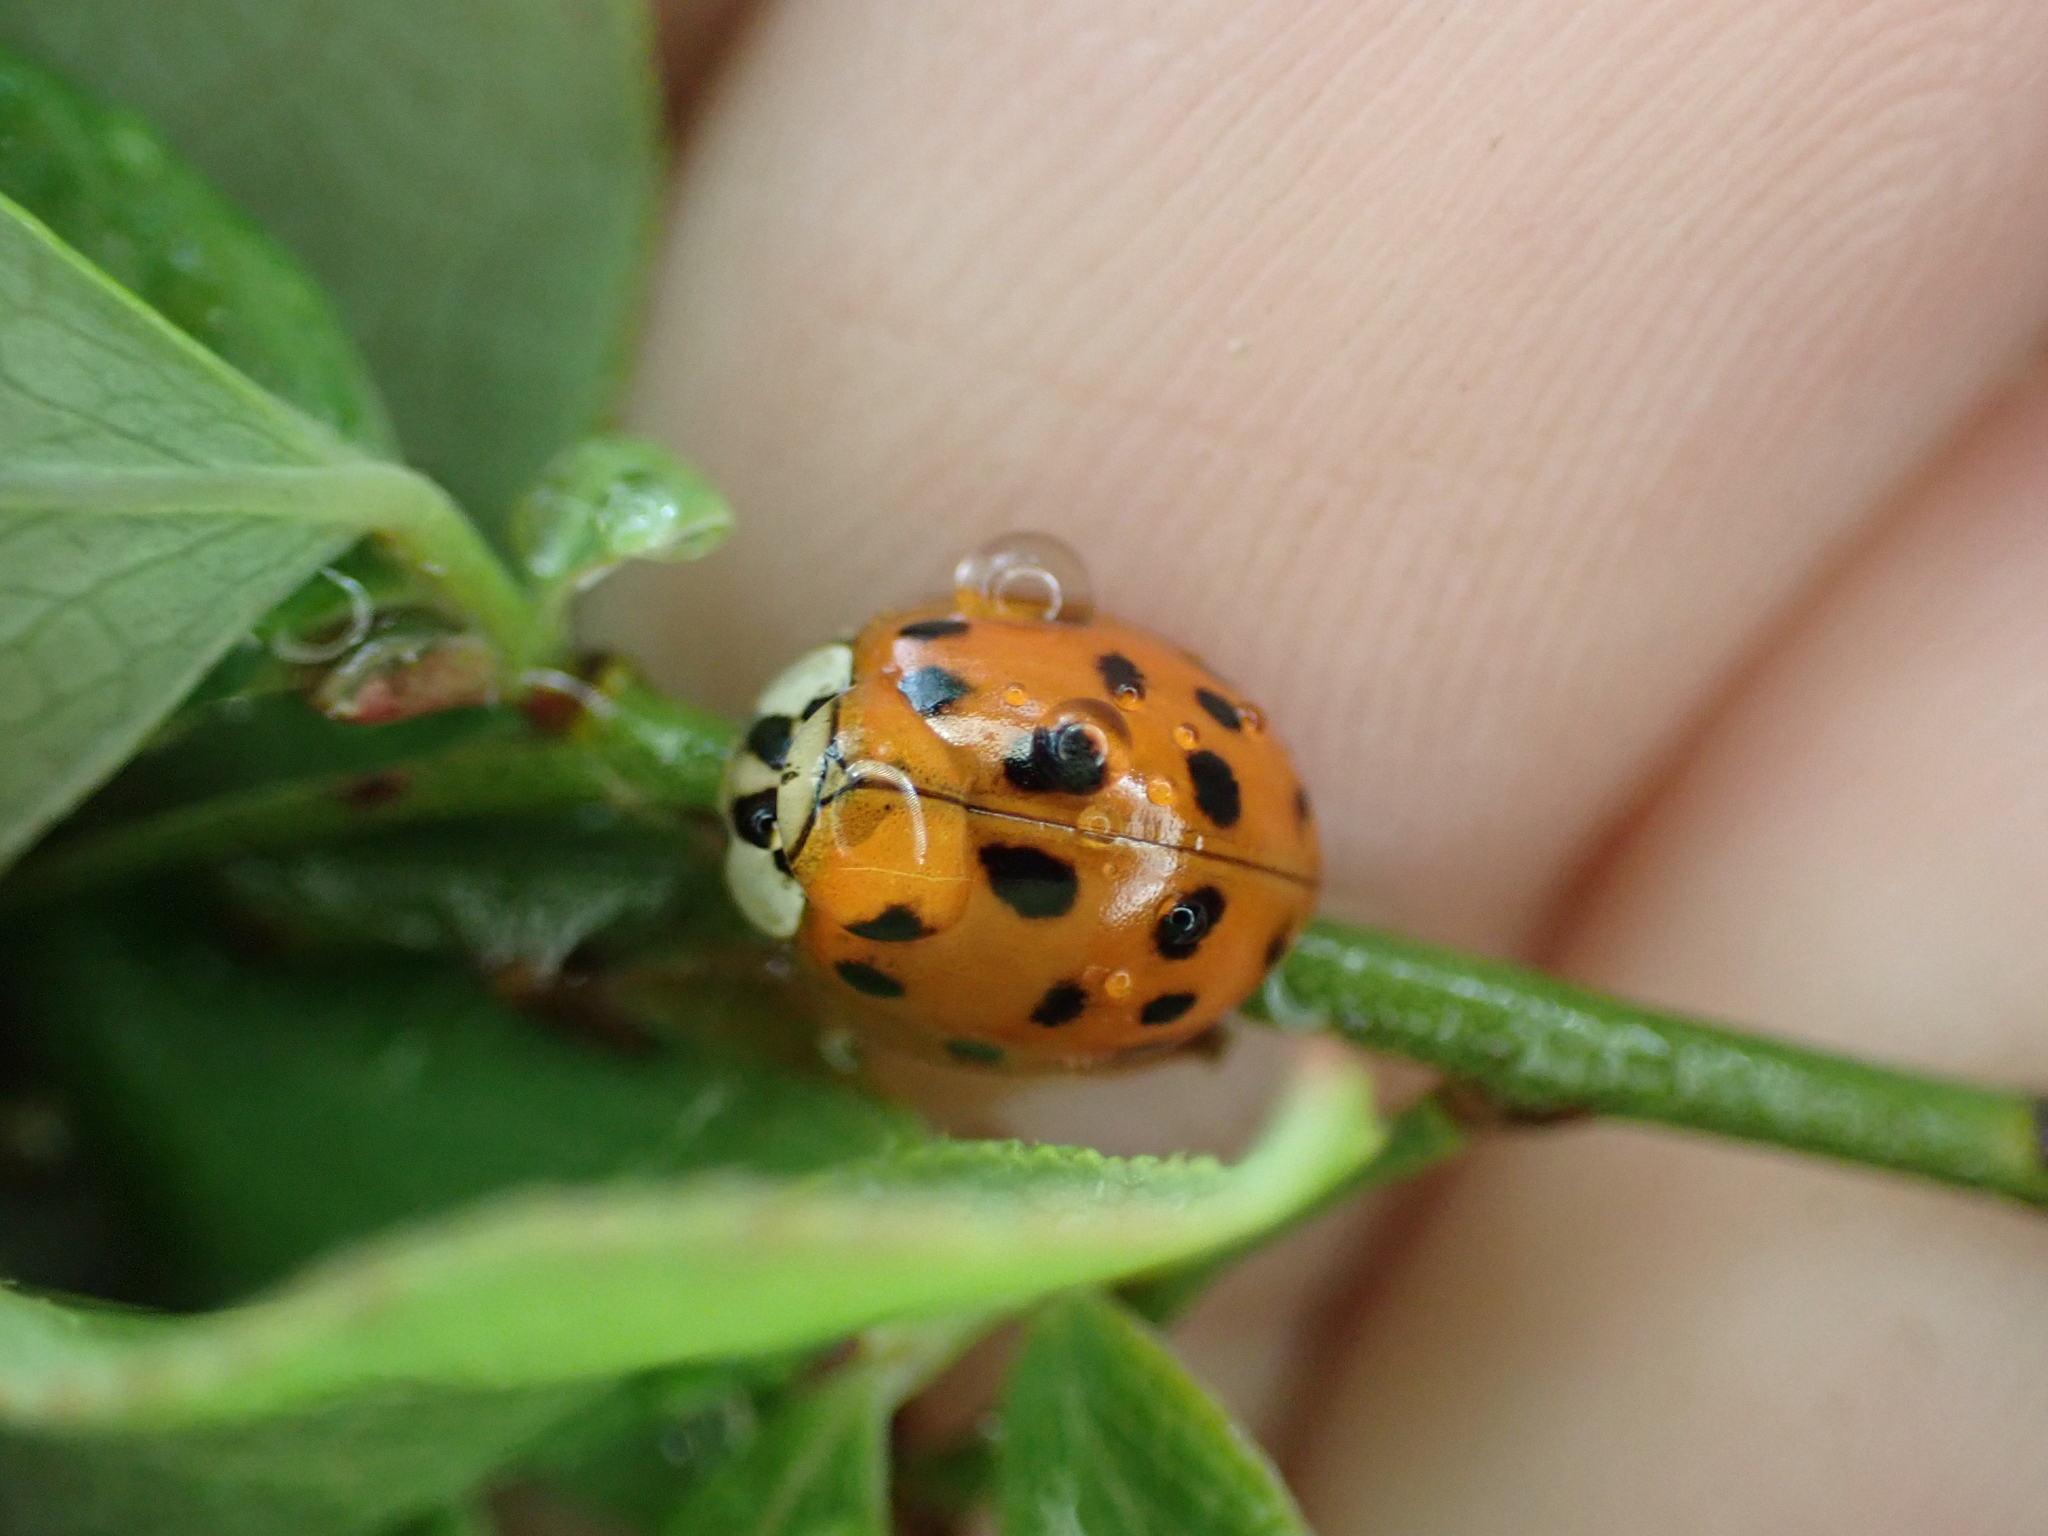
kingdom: Animalia
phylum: Arthropoda
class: Insecta
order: Coleoptera
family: Coccinellidae
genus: Harmonia
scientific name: Harmonia axyridis
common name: Harlequin ladybird
